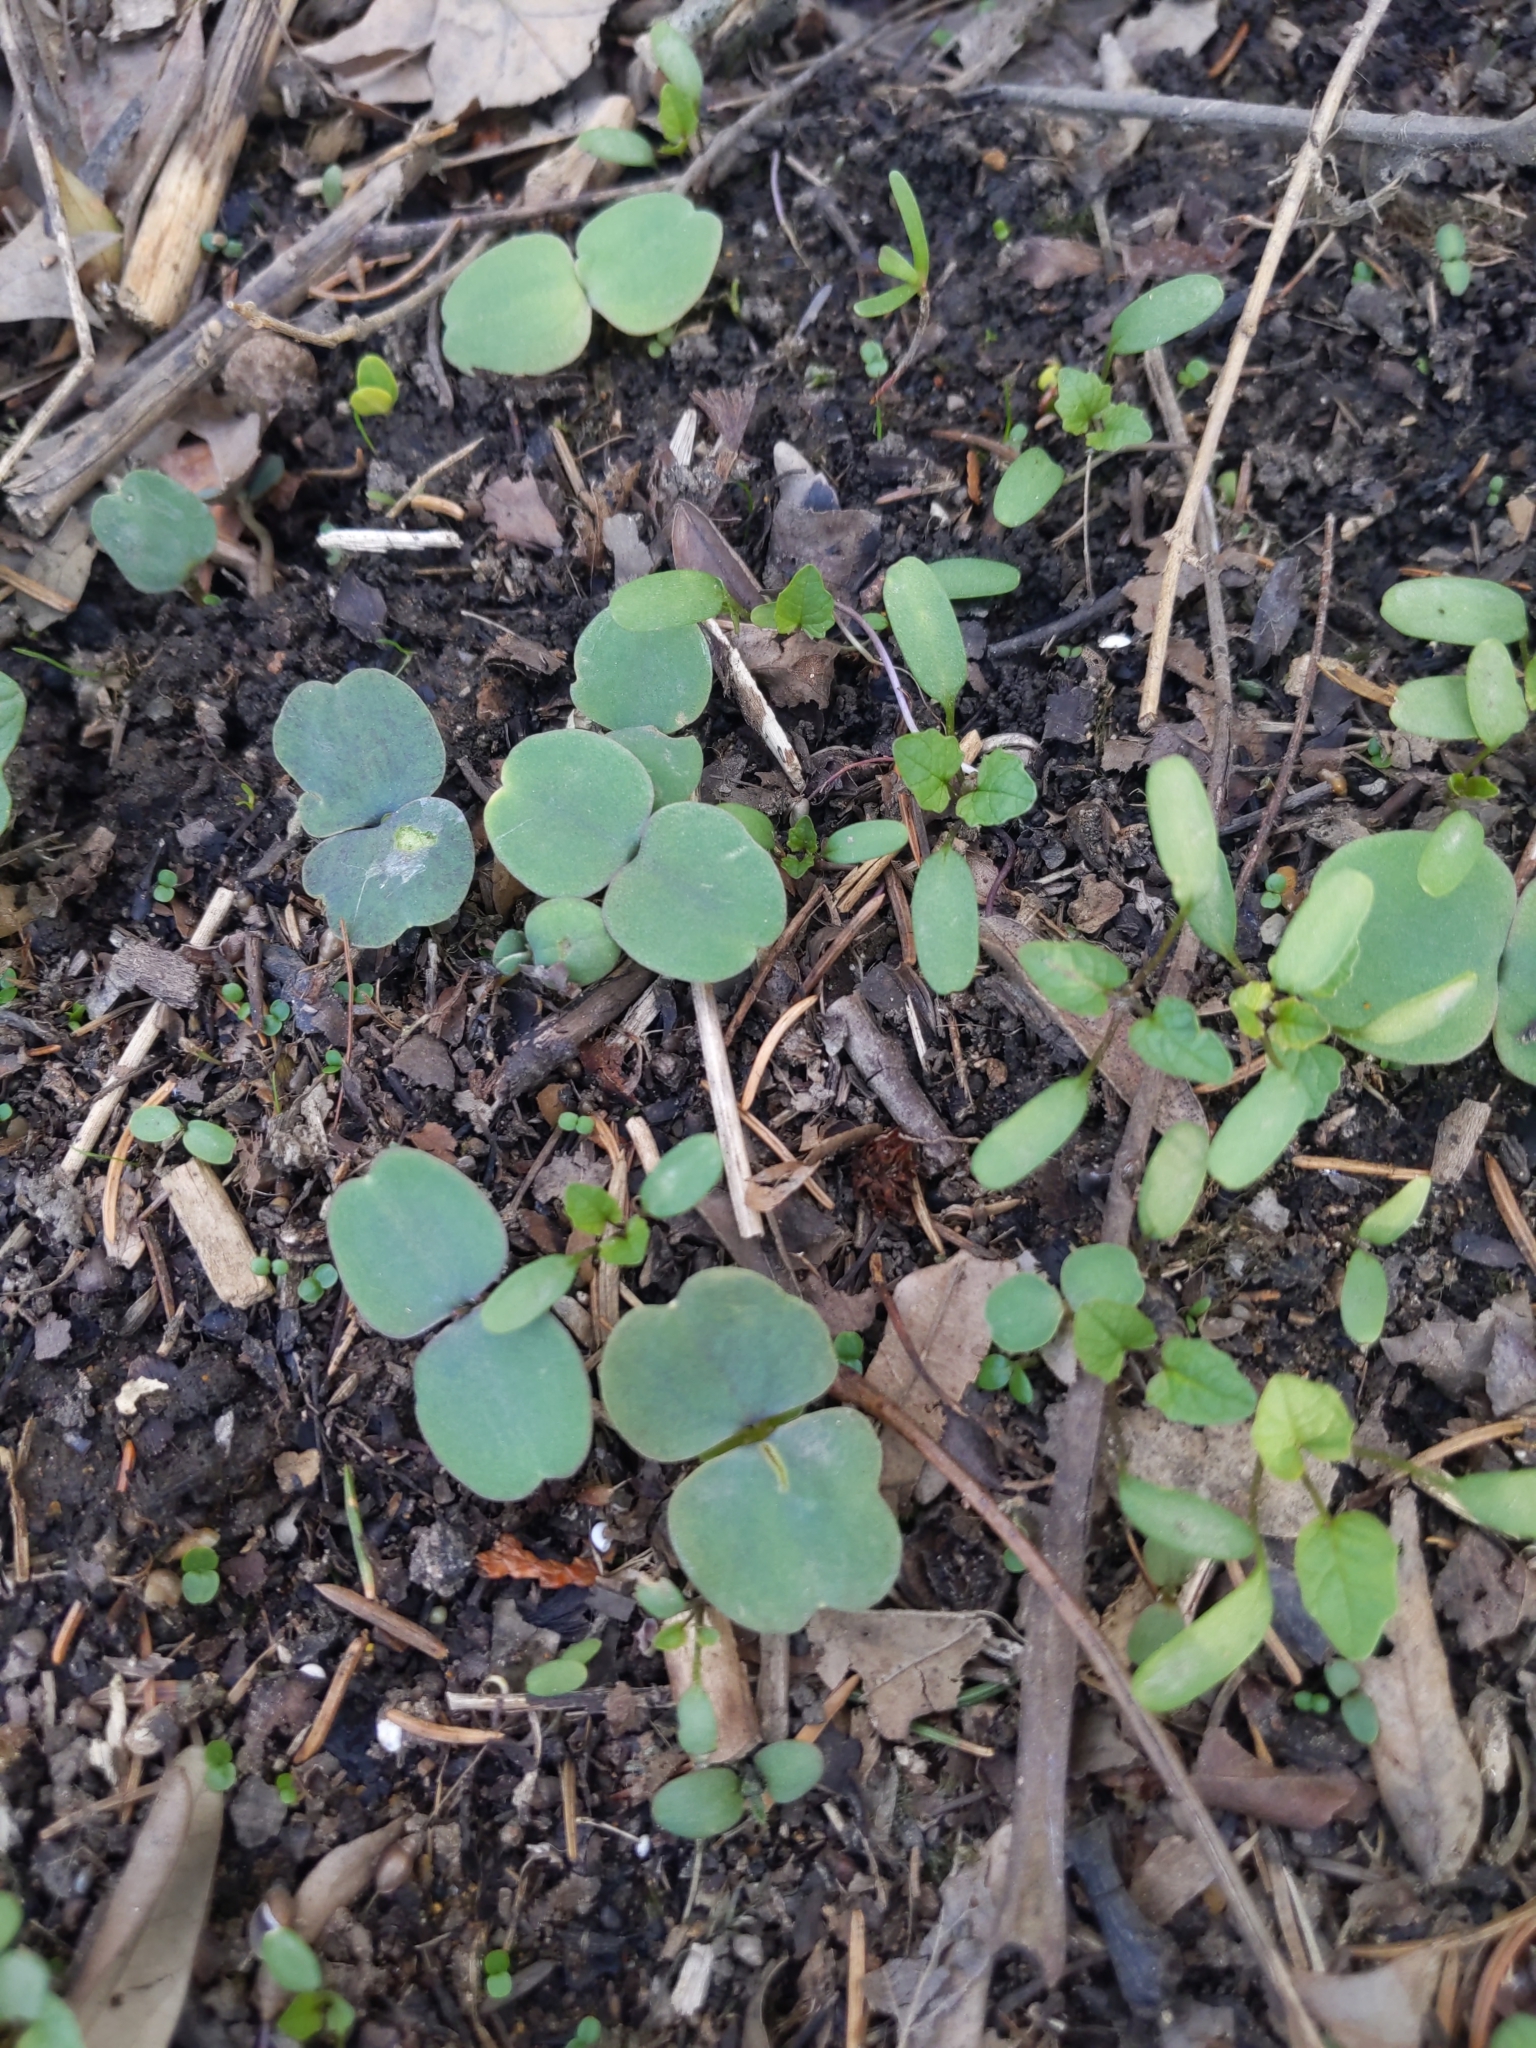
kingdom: Plantae
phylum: Tracheophyta
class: Magnoliopsida
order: Ericales
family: Balsaminaceae
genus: Impatiens
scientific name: Impatiens
